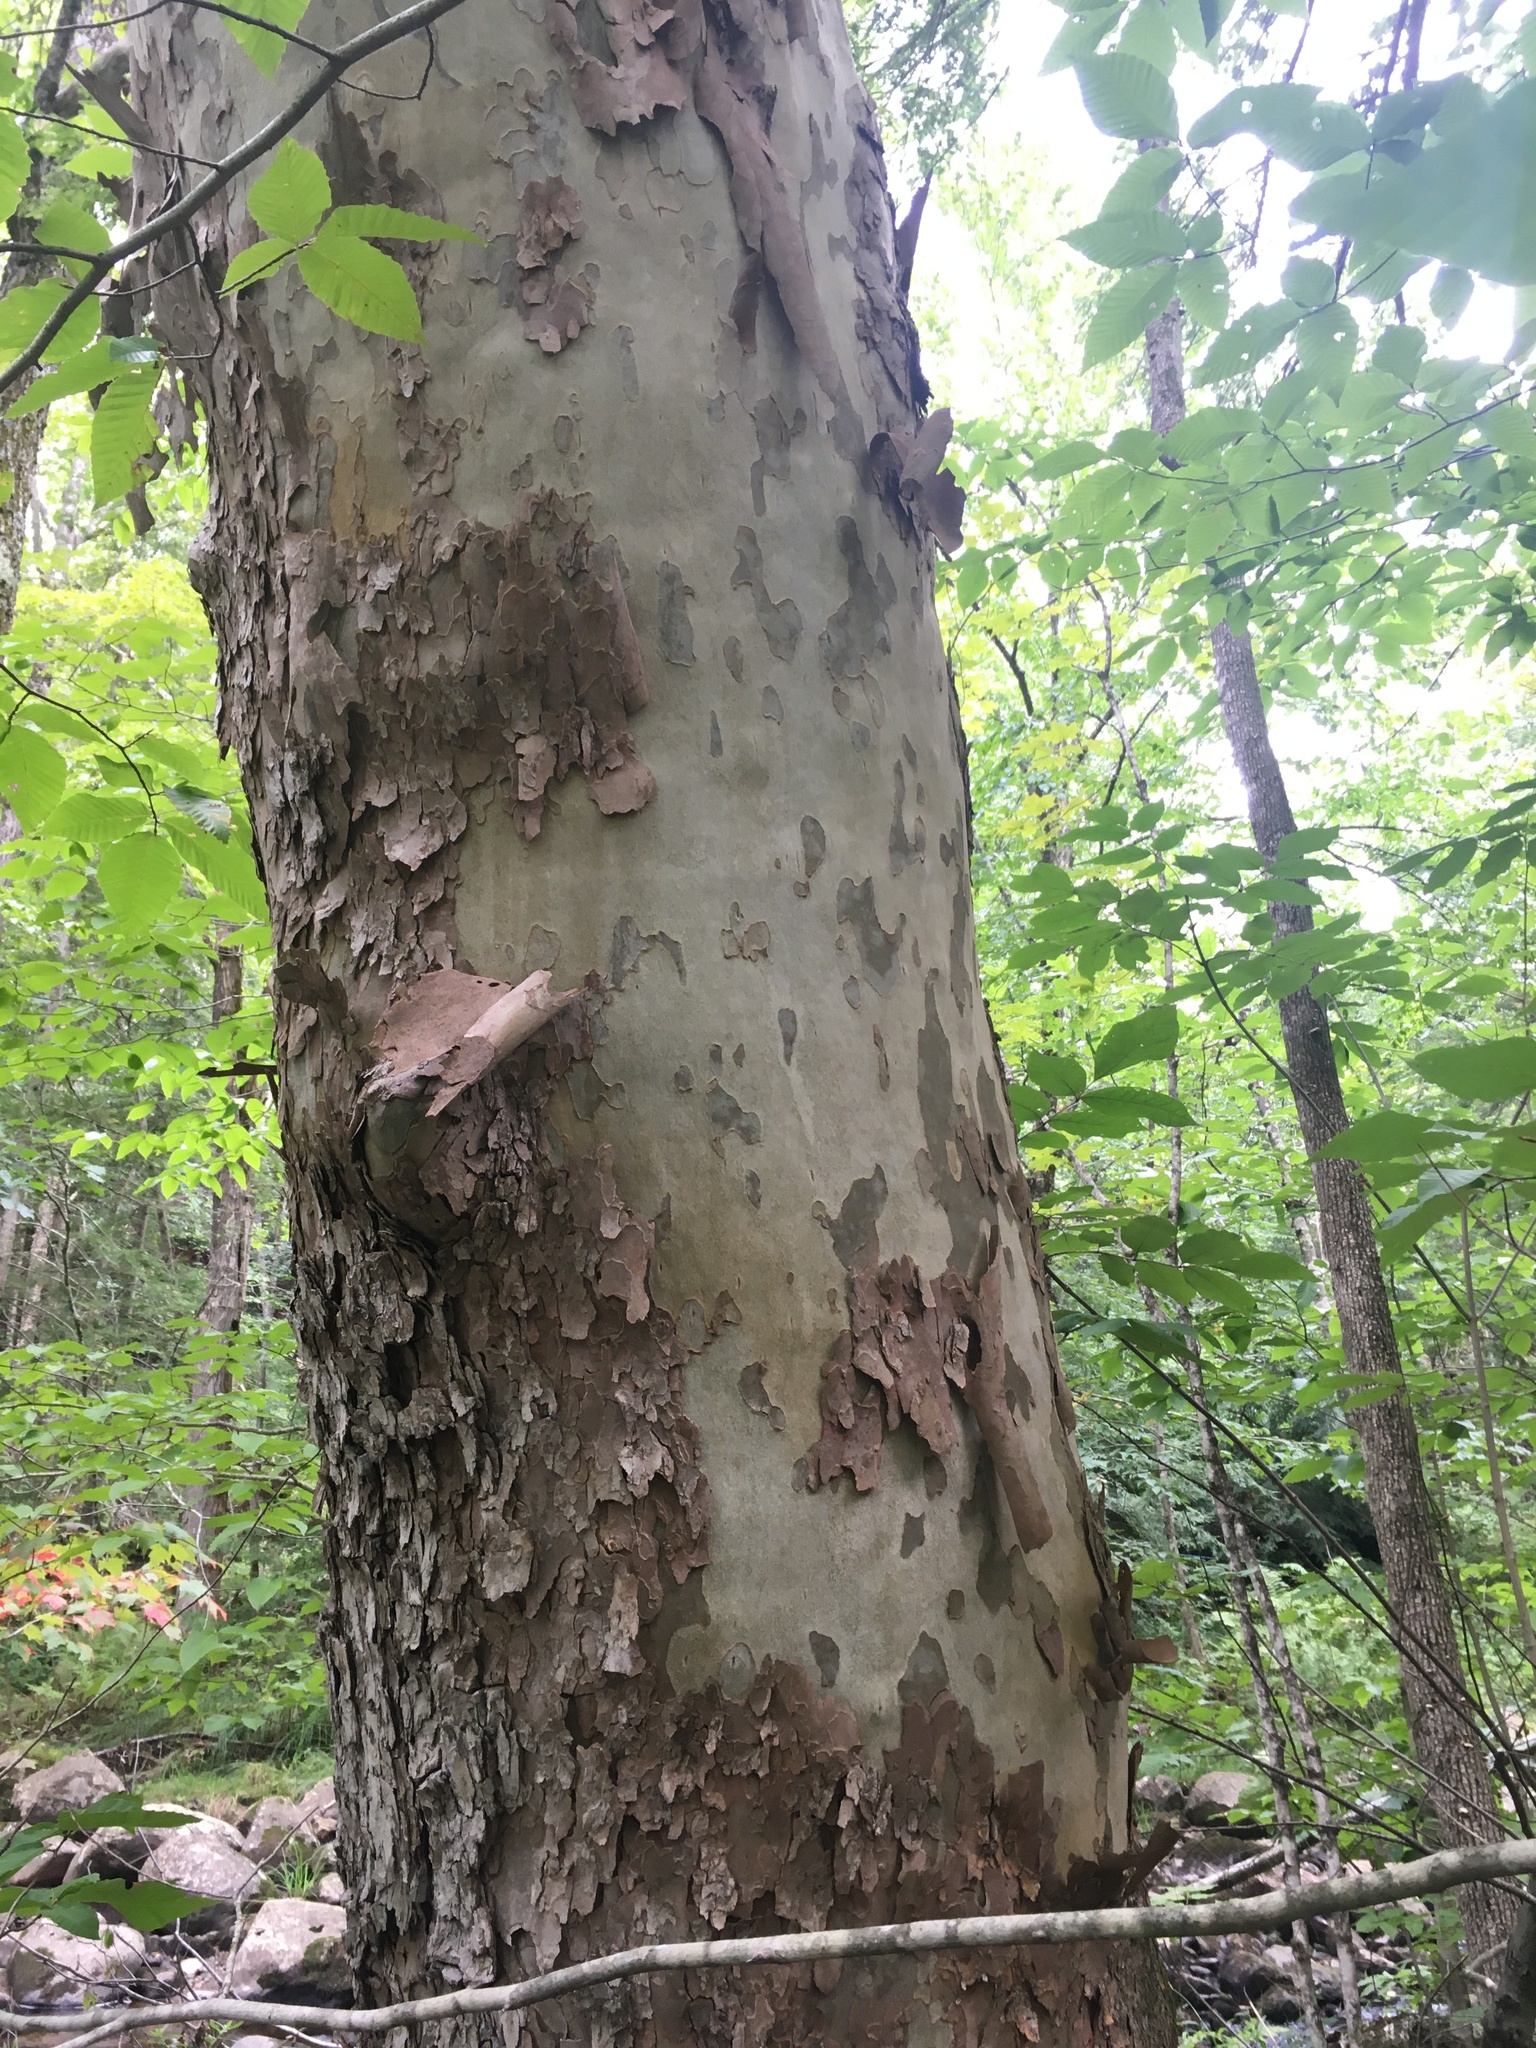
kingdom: Plantae
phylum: Tracheophyta
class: Magnoliopsida
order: Proteales
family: Platanaceae
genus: Platanus
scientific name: Platanus occidentalis
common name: American sycamore
